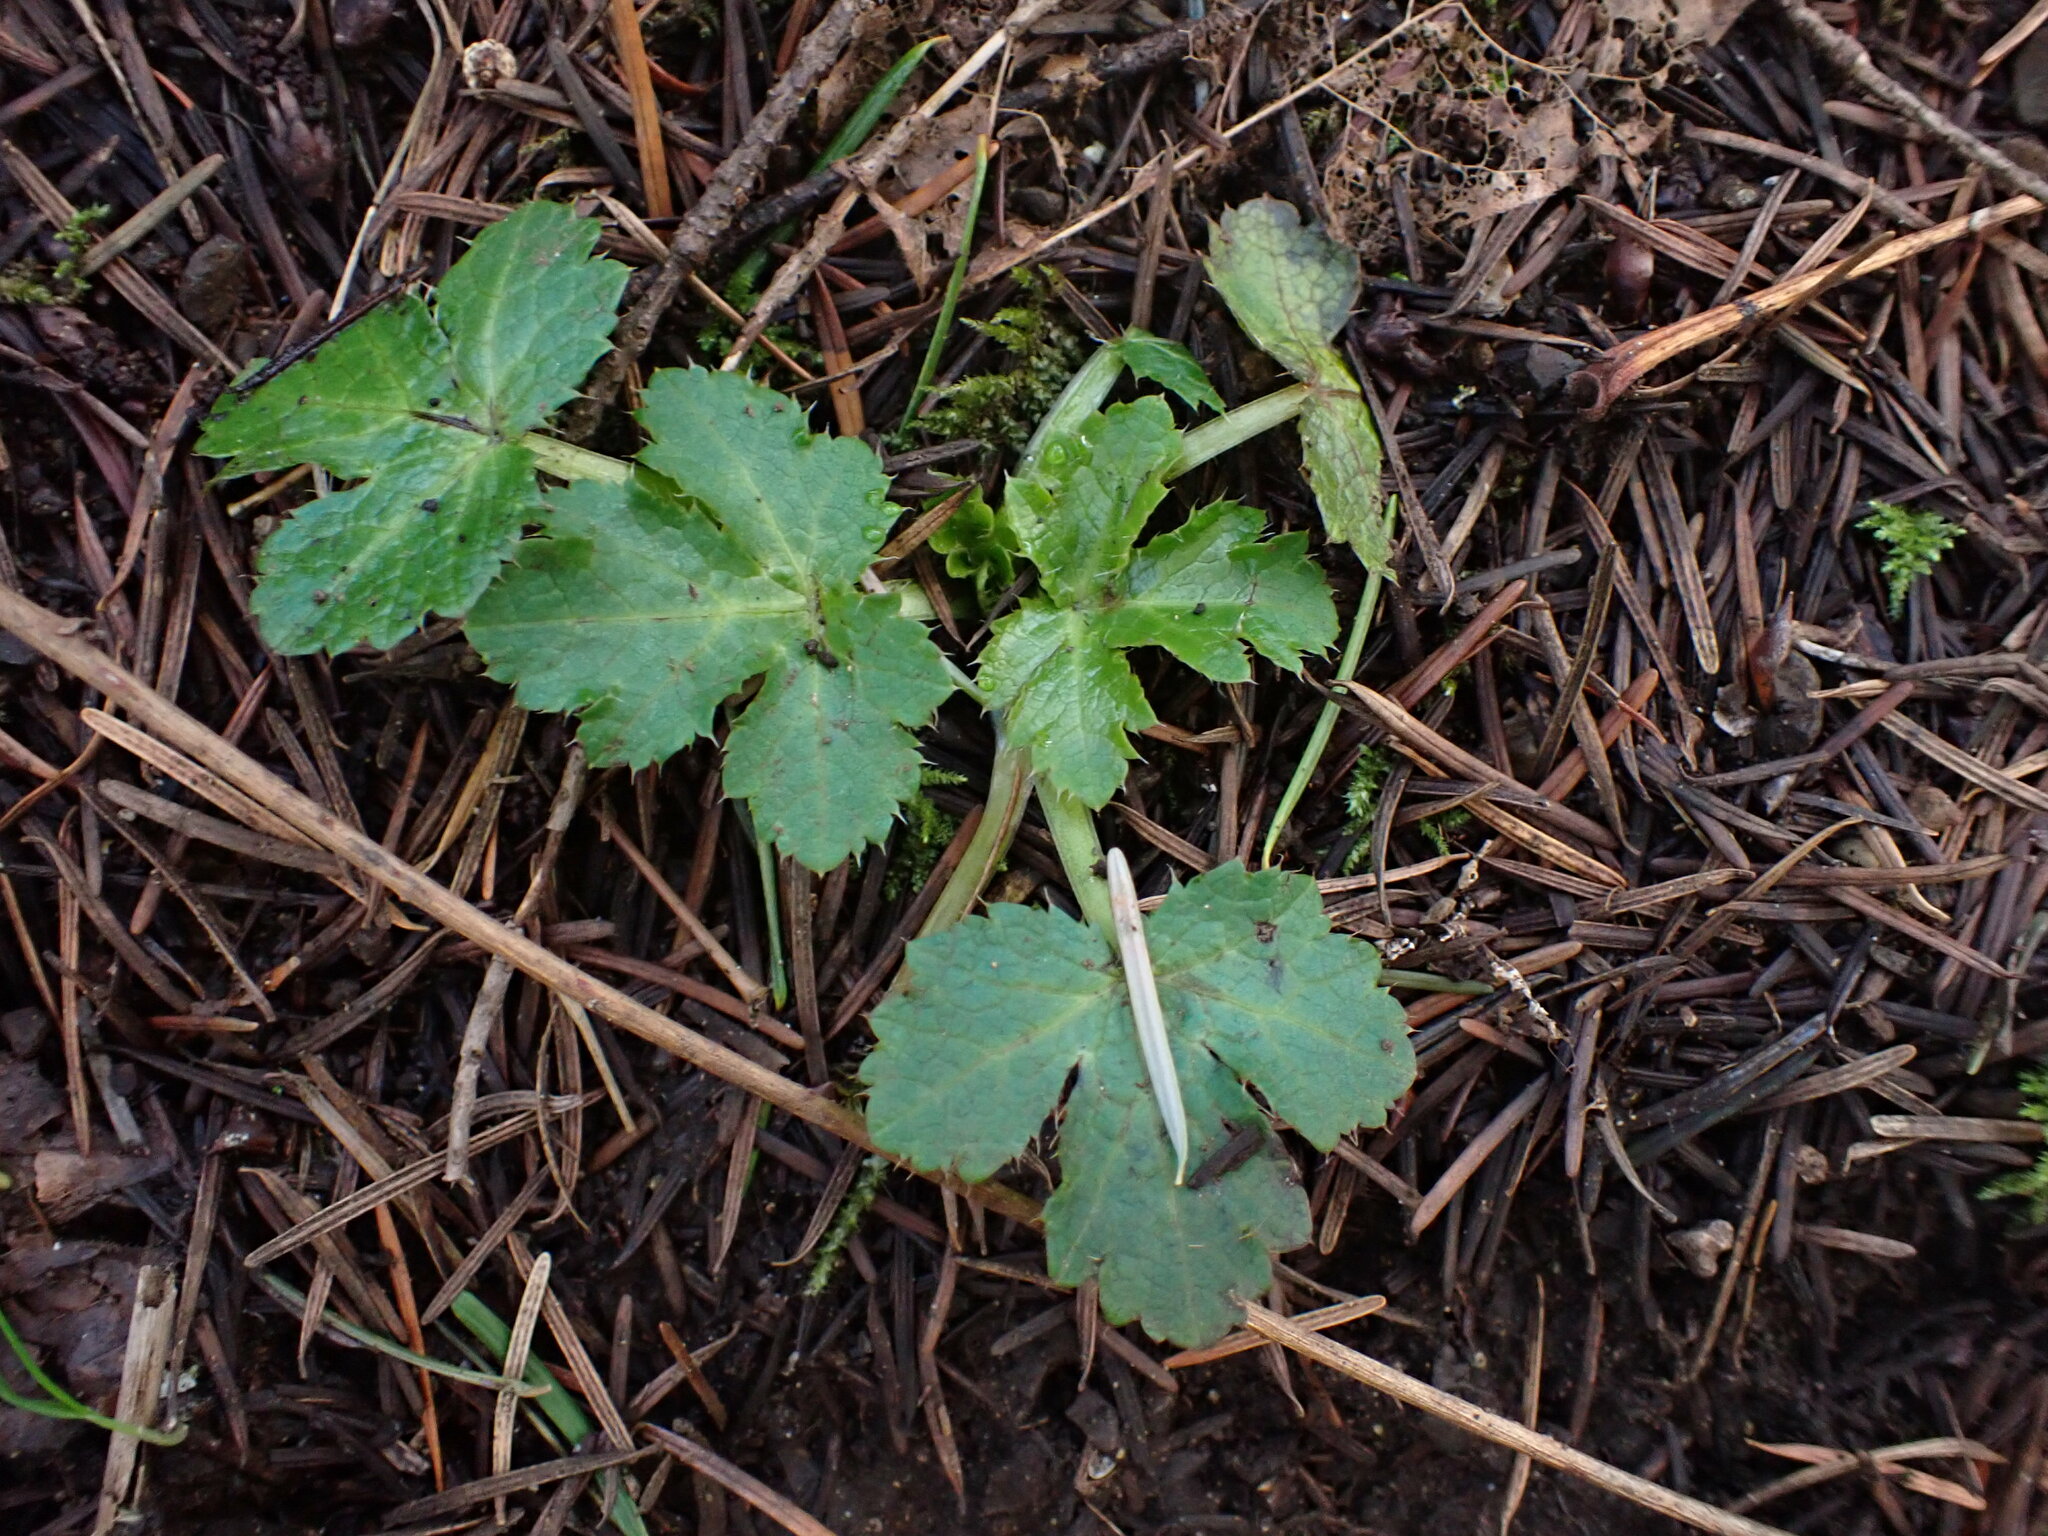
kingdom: Plantae
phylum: Tracheophyta
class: Magnoliopsida
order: Apiales
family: Apiaceae
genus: Sanicula
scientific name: Sanicula crassicaulis
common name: Western snakeroot
